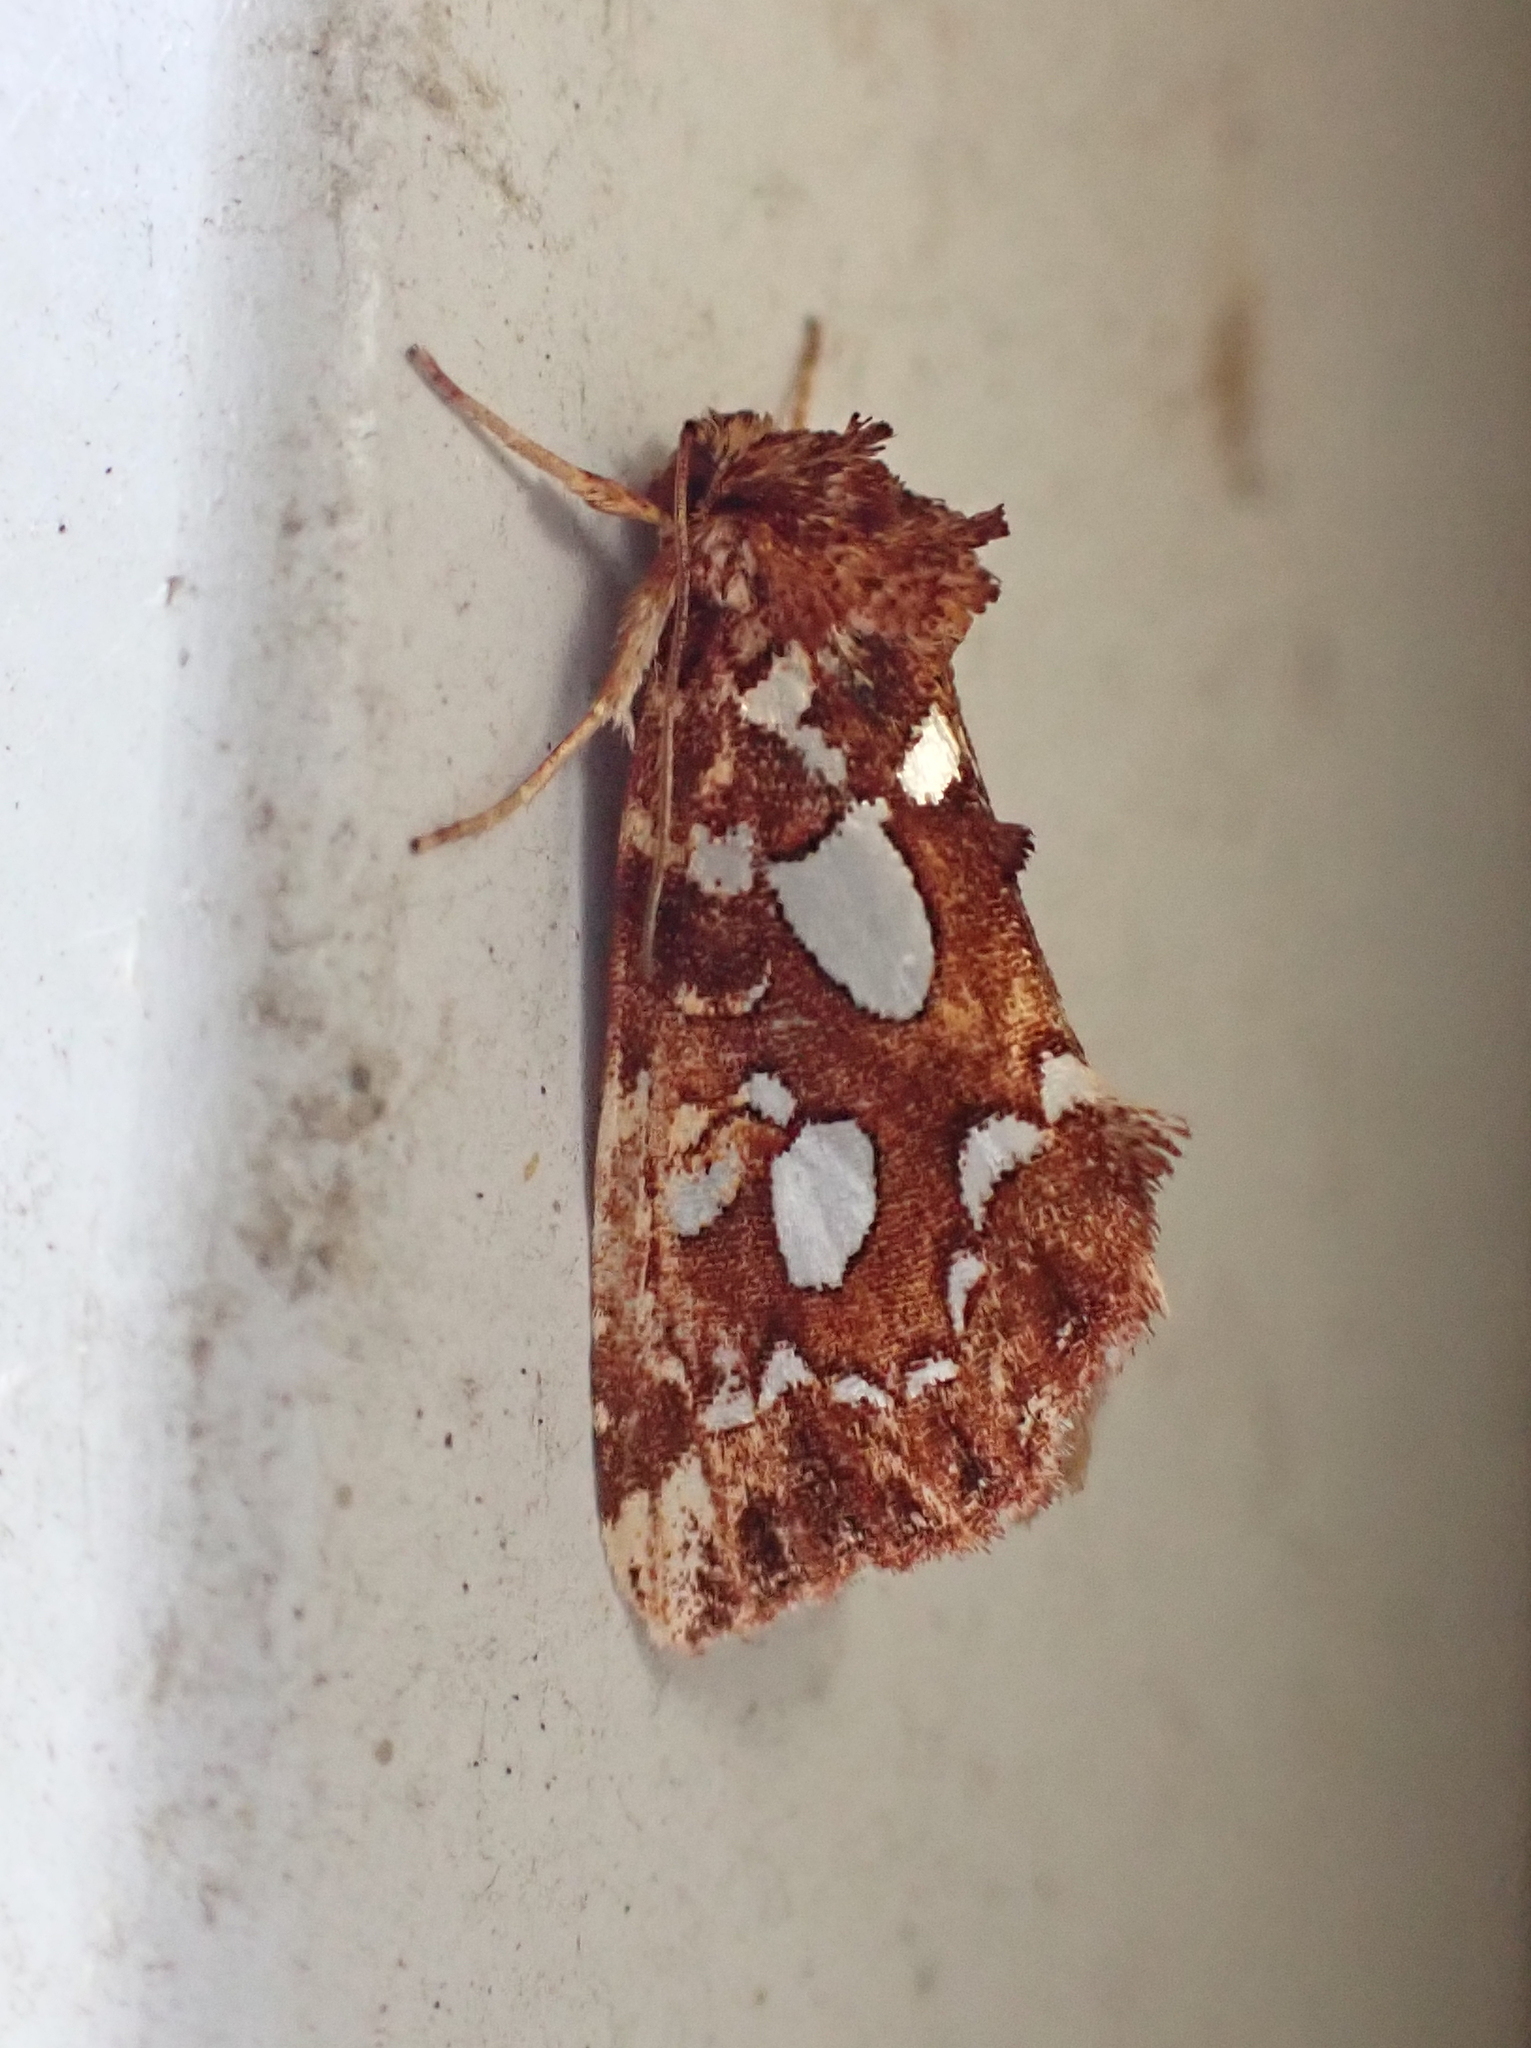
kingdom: Animalia
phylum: Arthropoda
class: Insecta
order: Lepidoptera
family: Noctuidae
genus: Callopistria
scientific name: Callopistria cordata
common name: Silver-spotted fern moth
